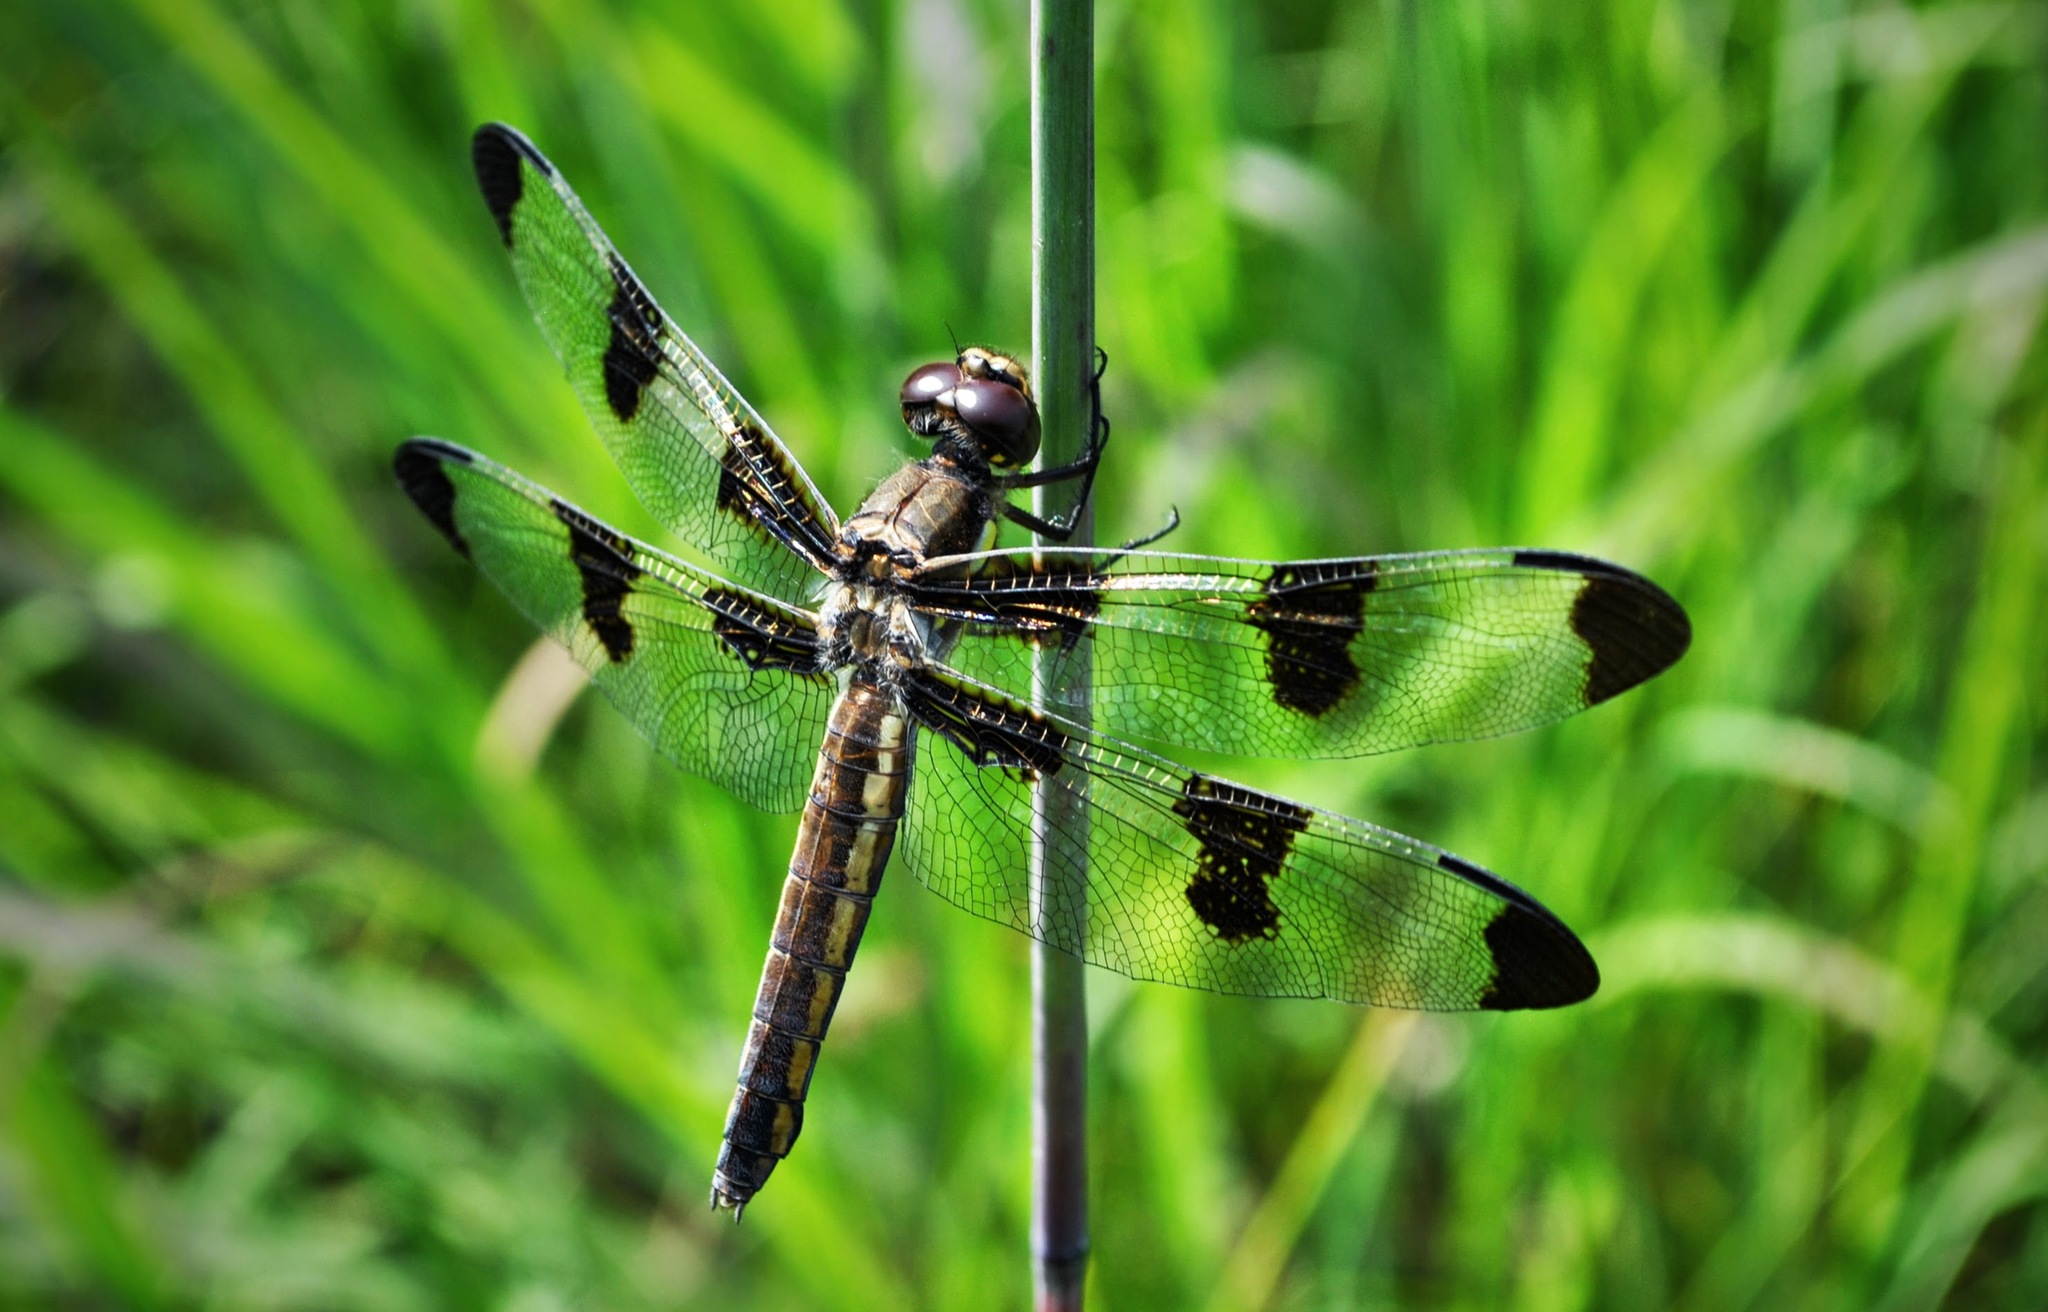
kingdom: Animalia
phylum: Arthropoda
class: Insecta
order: Odonata
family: Libellulidae
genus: Libellula
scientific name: Libellula pulchella
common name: Twelve-spotted skimmer
